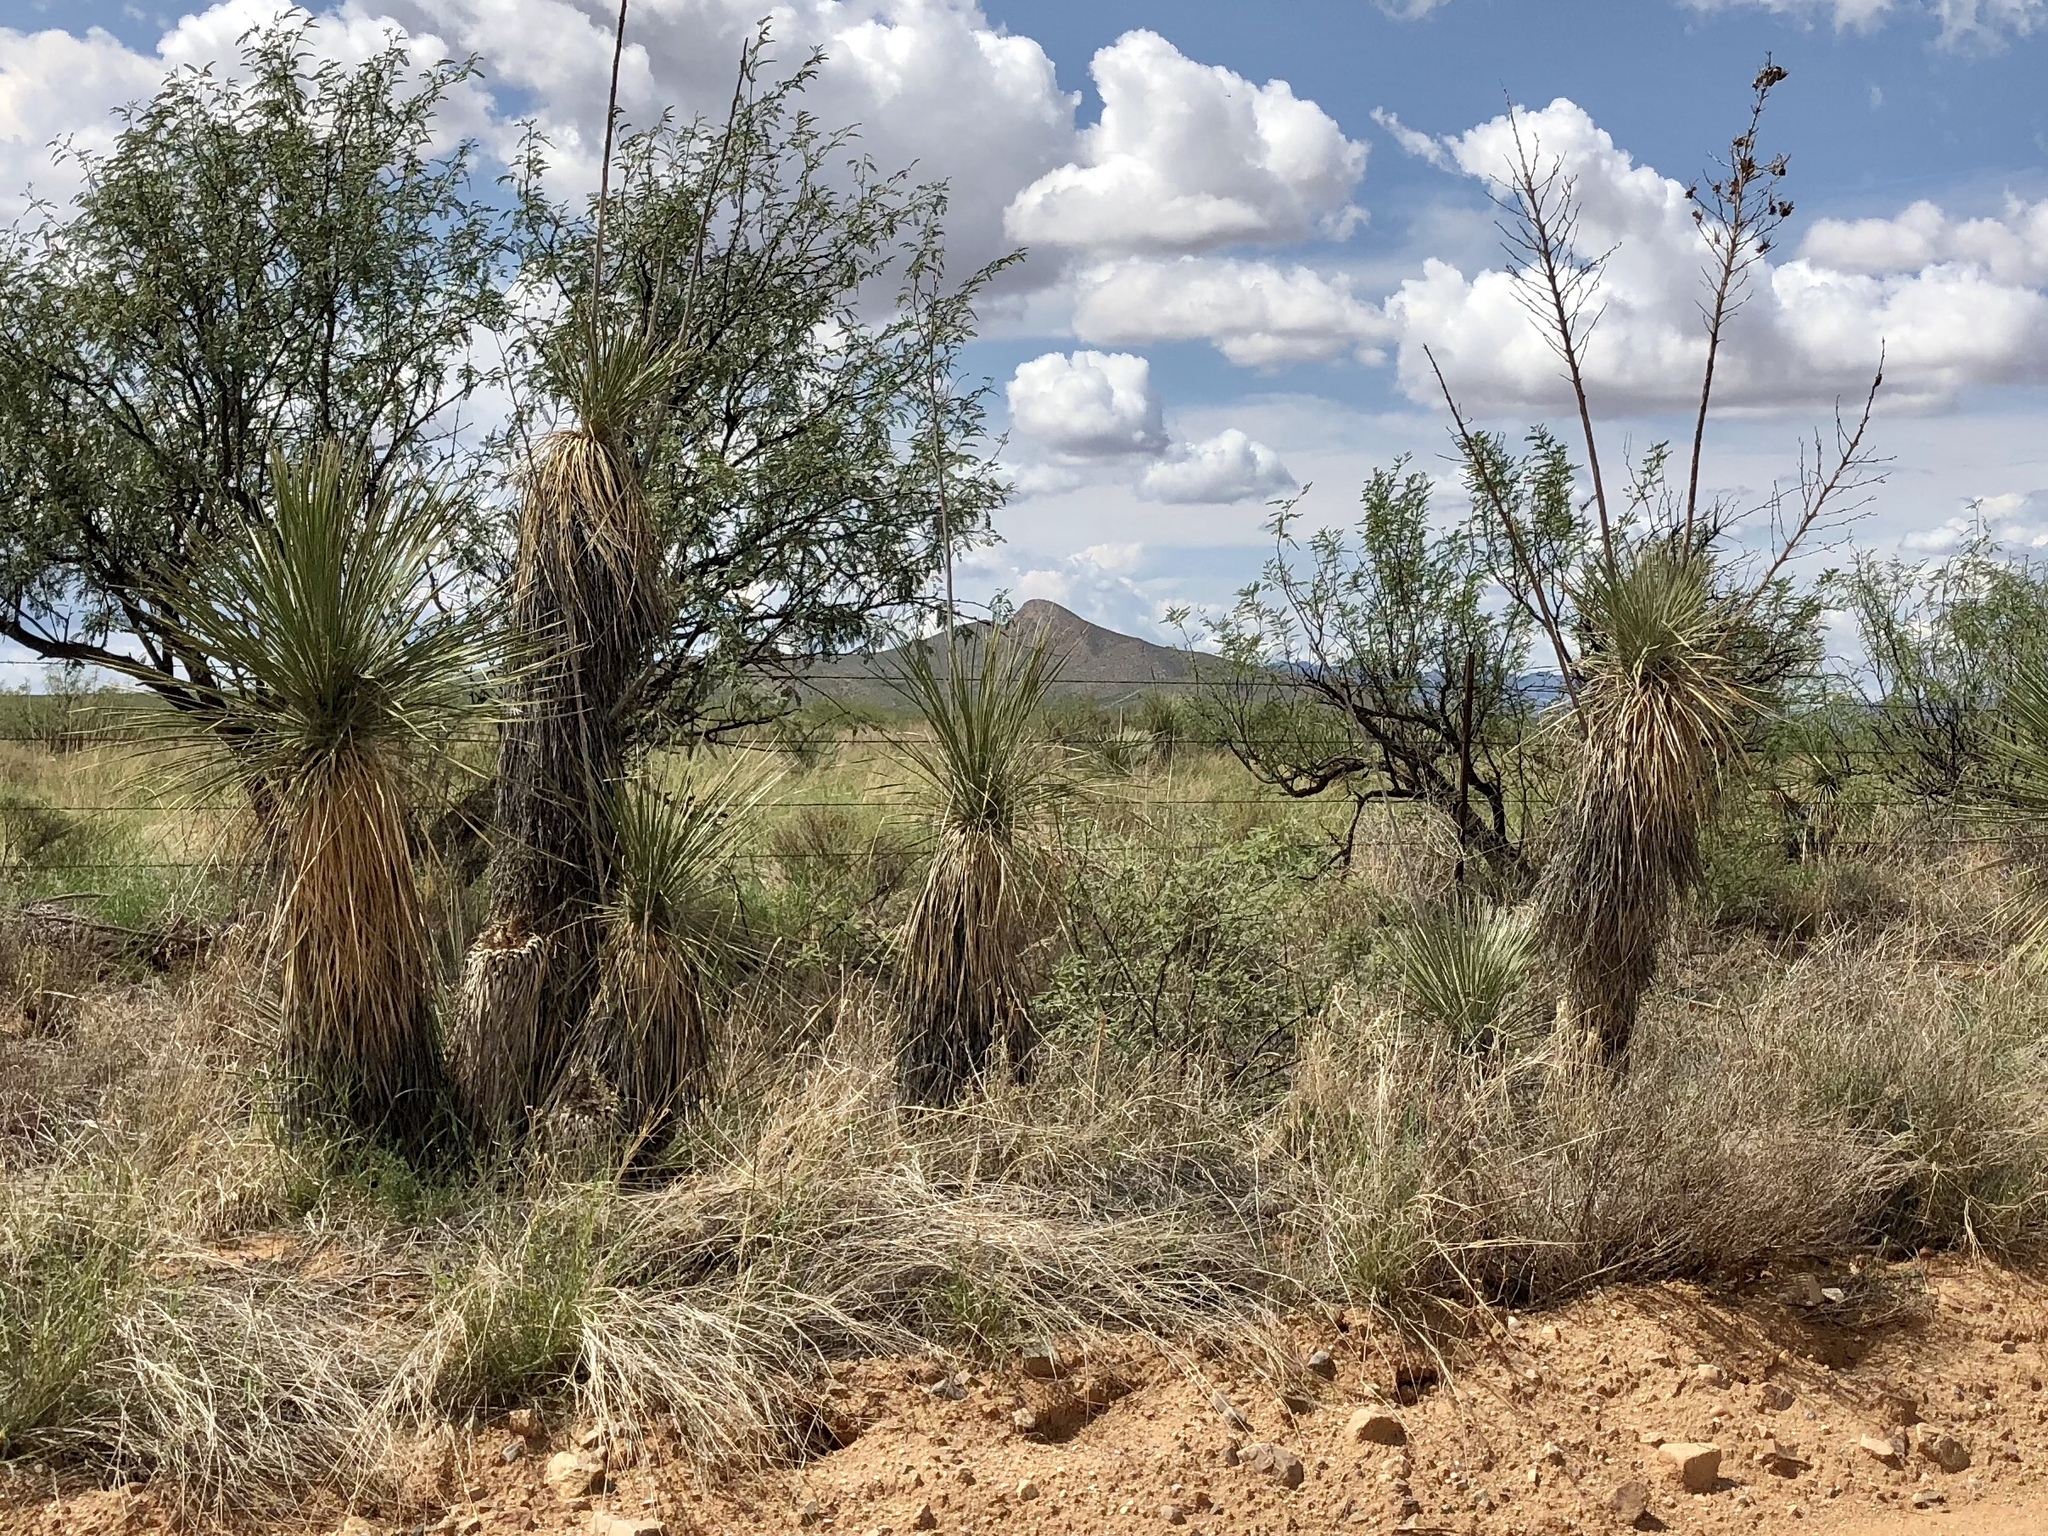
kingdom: Plantae
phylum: Tracheophyta
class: Liliopsida
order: Asparagales
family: Asparagaceae
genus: Yucca
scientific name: Yucca elata
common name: Palmella
